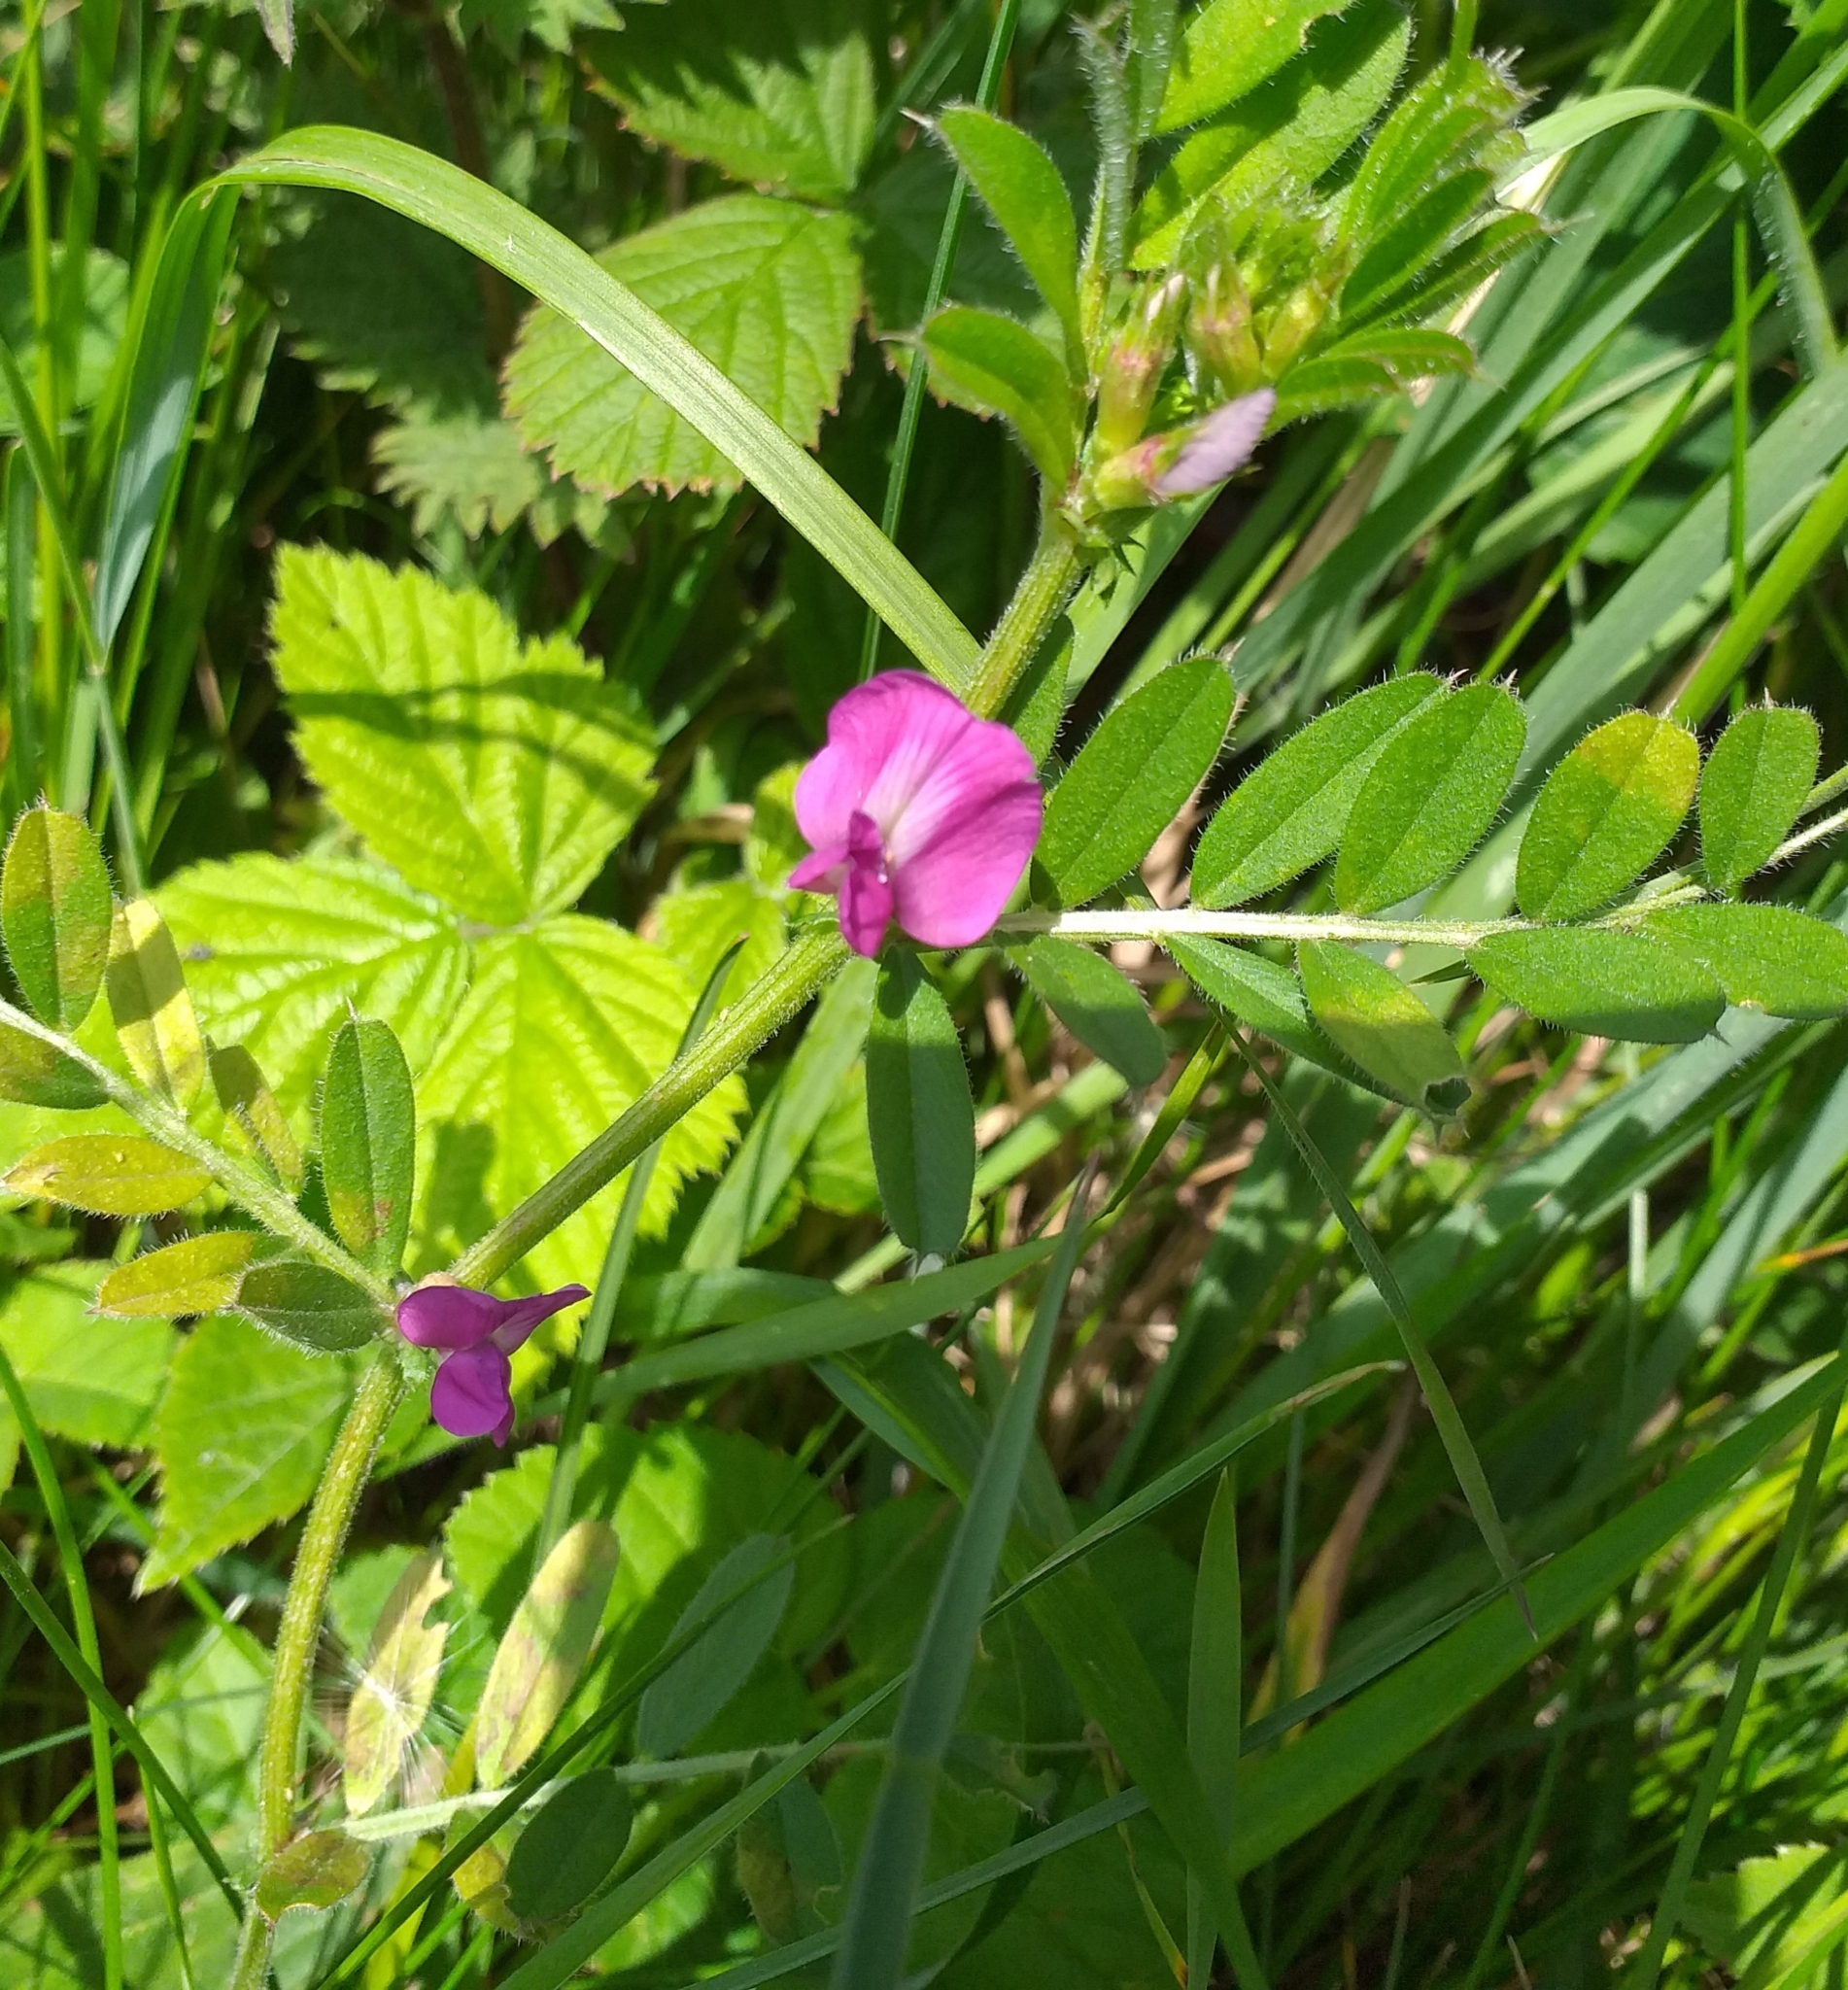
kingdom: Plantae
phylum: Tracheophyta
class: Magnoliopsida
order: Fabales
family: Fabaceae
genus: Vicia
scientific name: Vicia sativa
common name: Garden vetch
